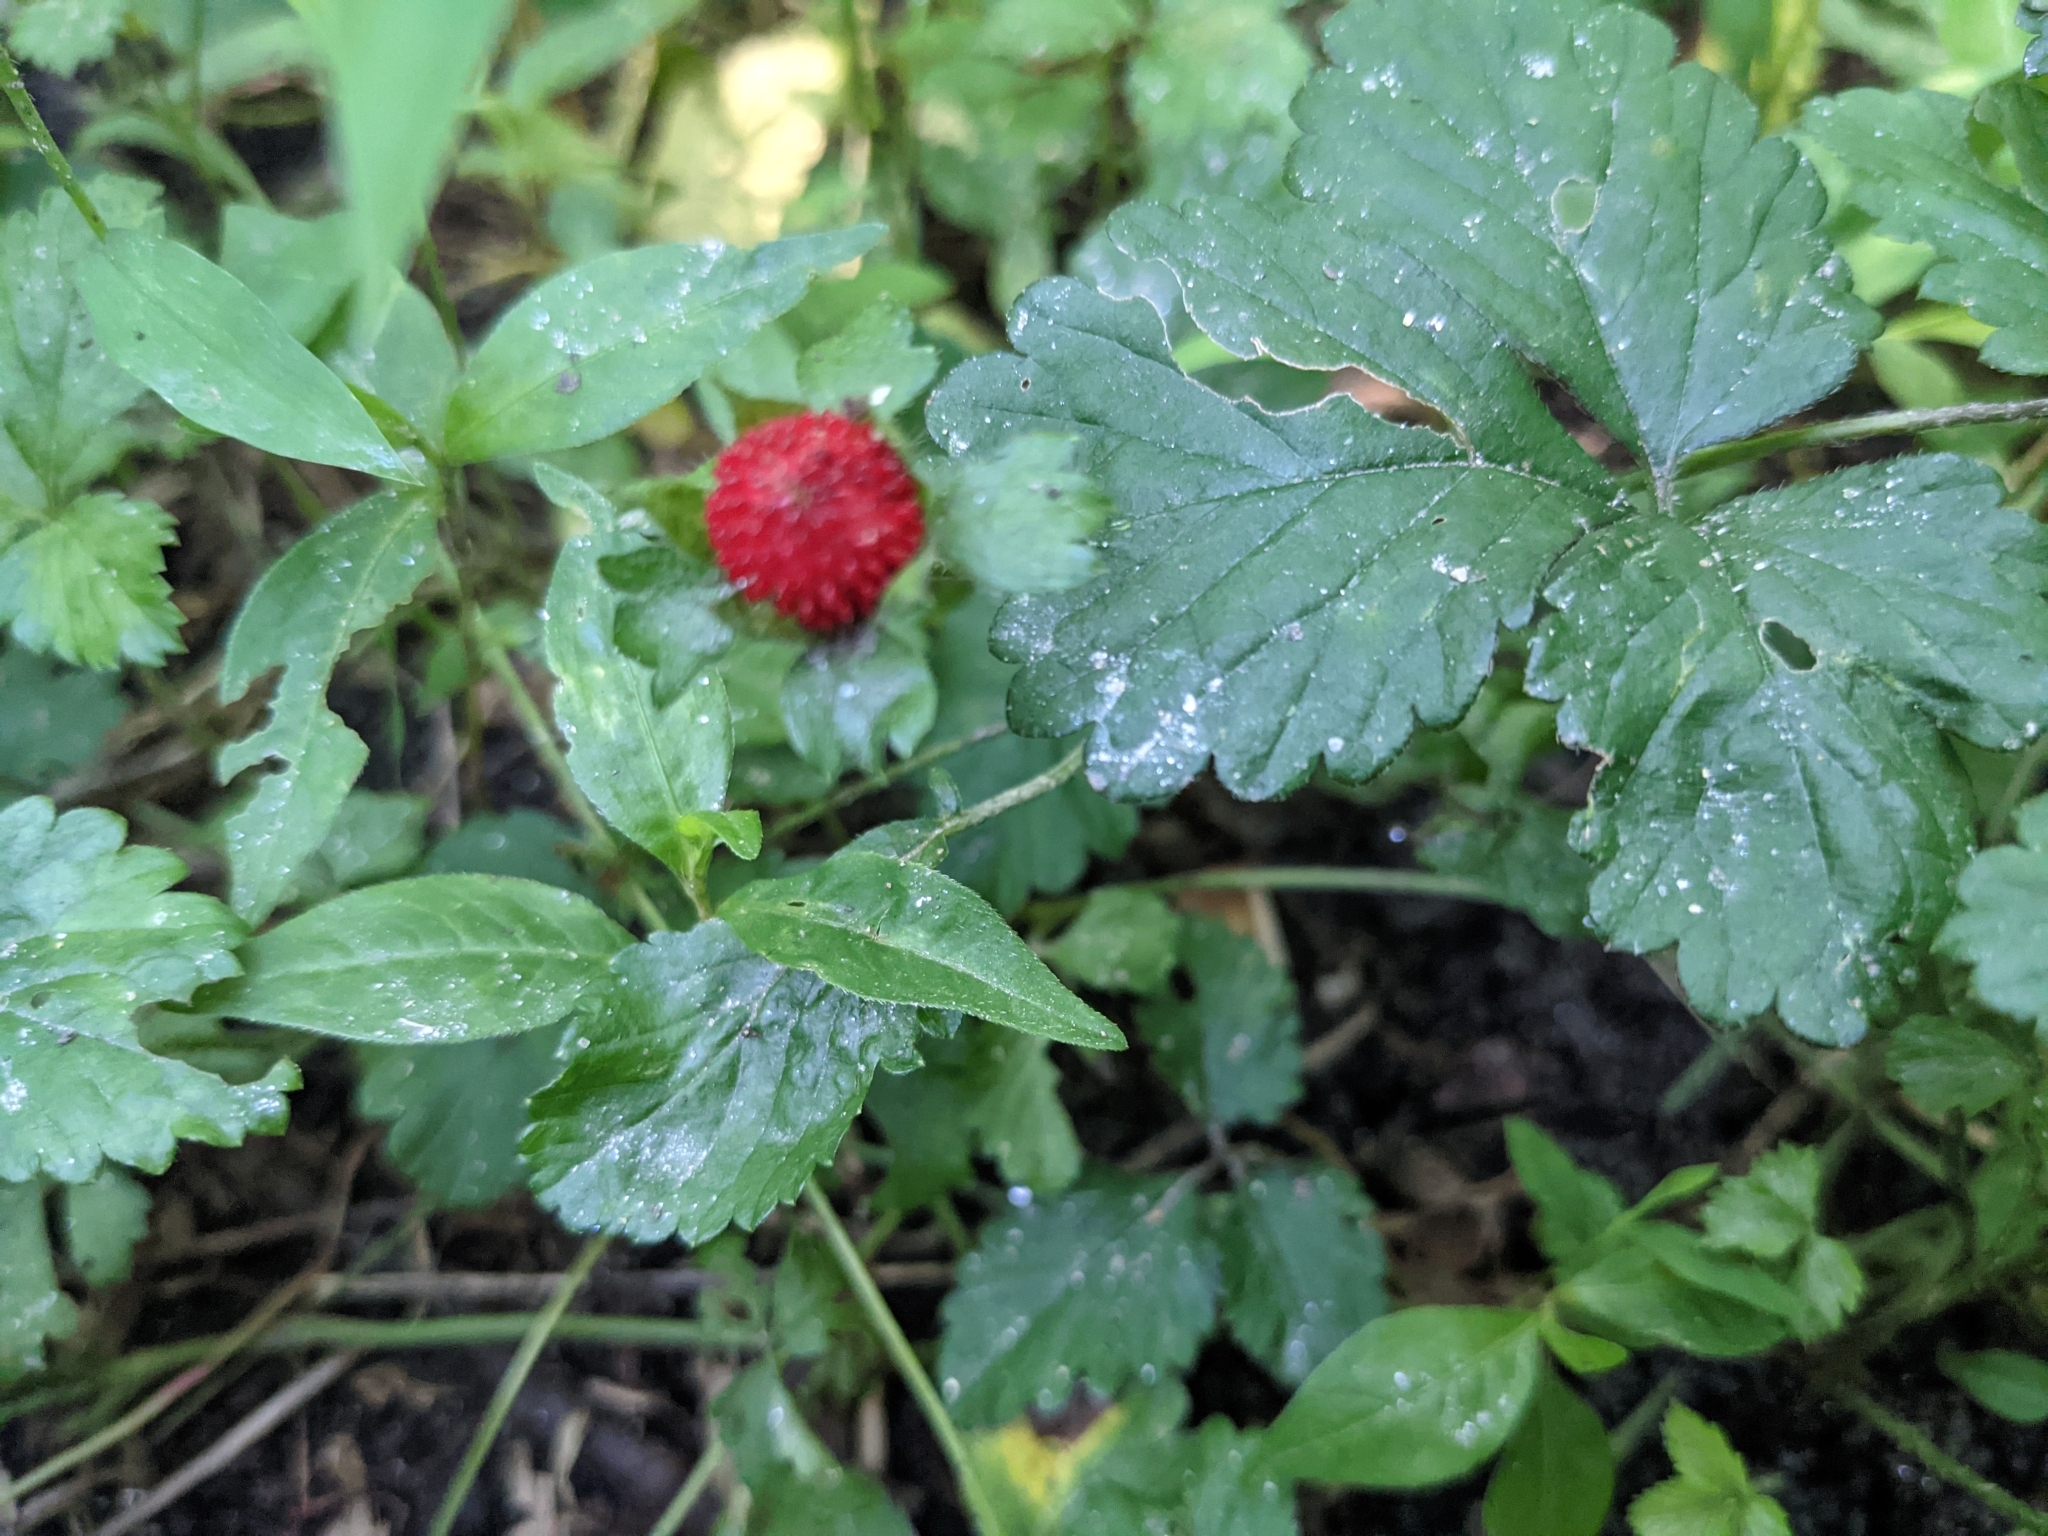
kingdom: Plantae
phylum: Tracheophyta
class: Magnoliopsida
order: Rosales
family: Rosaceae
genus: Potentilla
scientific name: Potentilla indica
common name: Yellow-flowered strawberry
